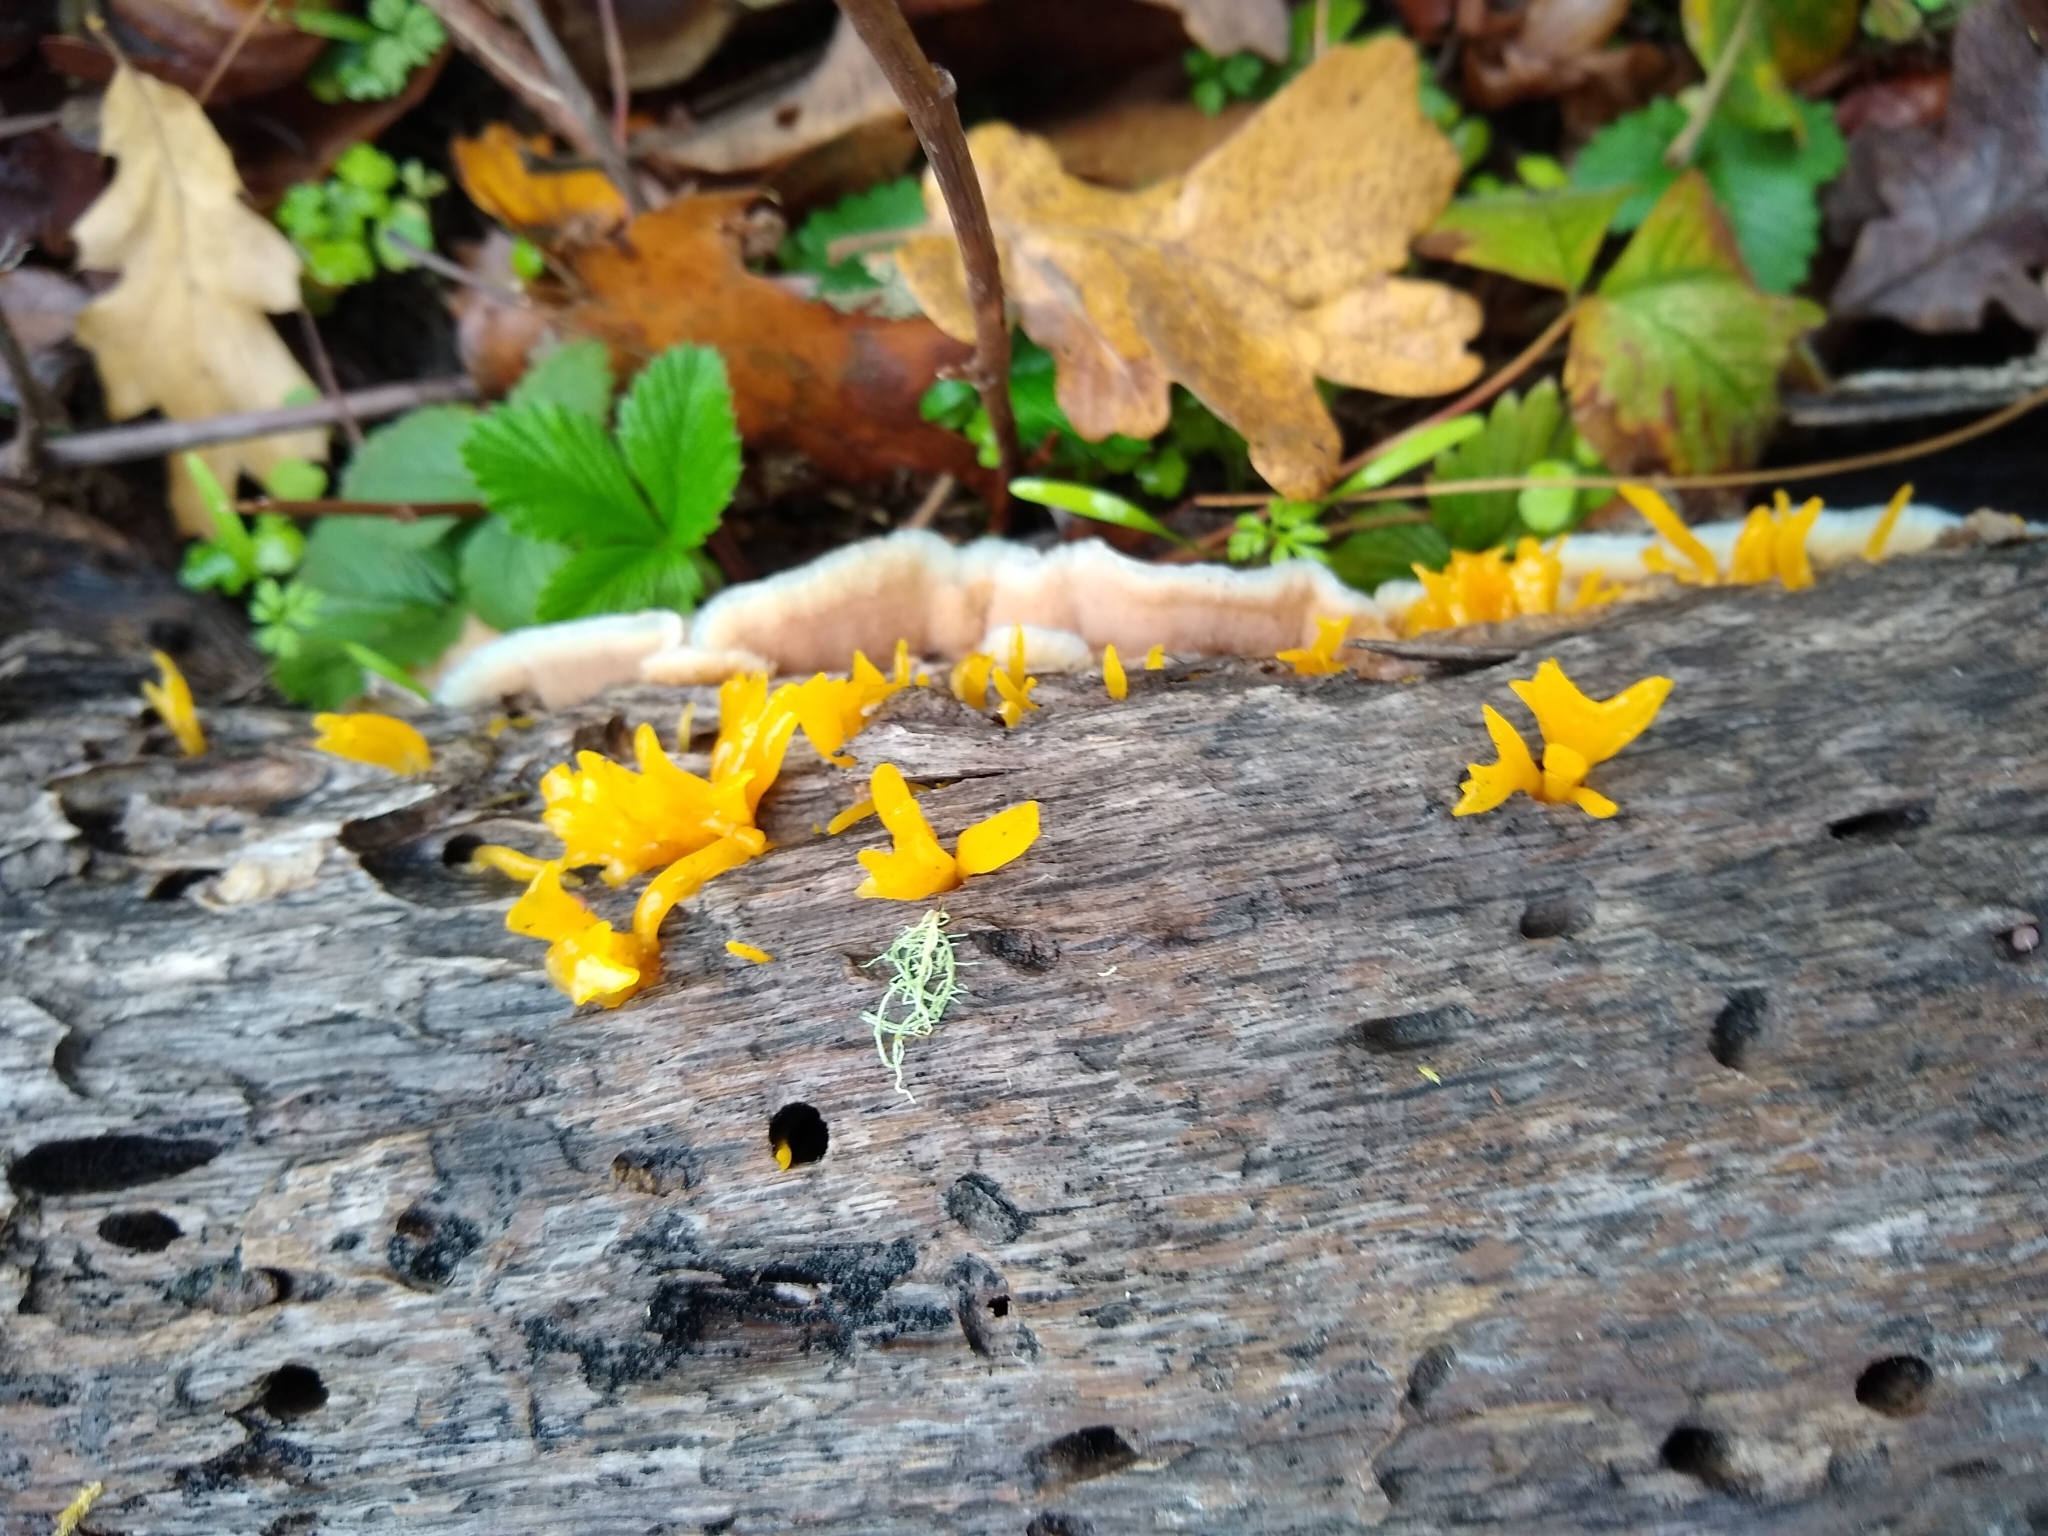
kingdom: Fungi
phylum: Basidiomycota
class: Dacrymycetes
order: Dacrymycetales
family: Dacrymycetaceae
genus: Calocera
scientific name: Calocera cornea
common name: Small stagshorn
